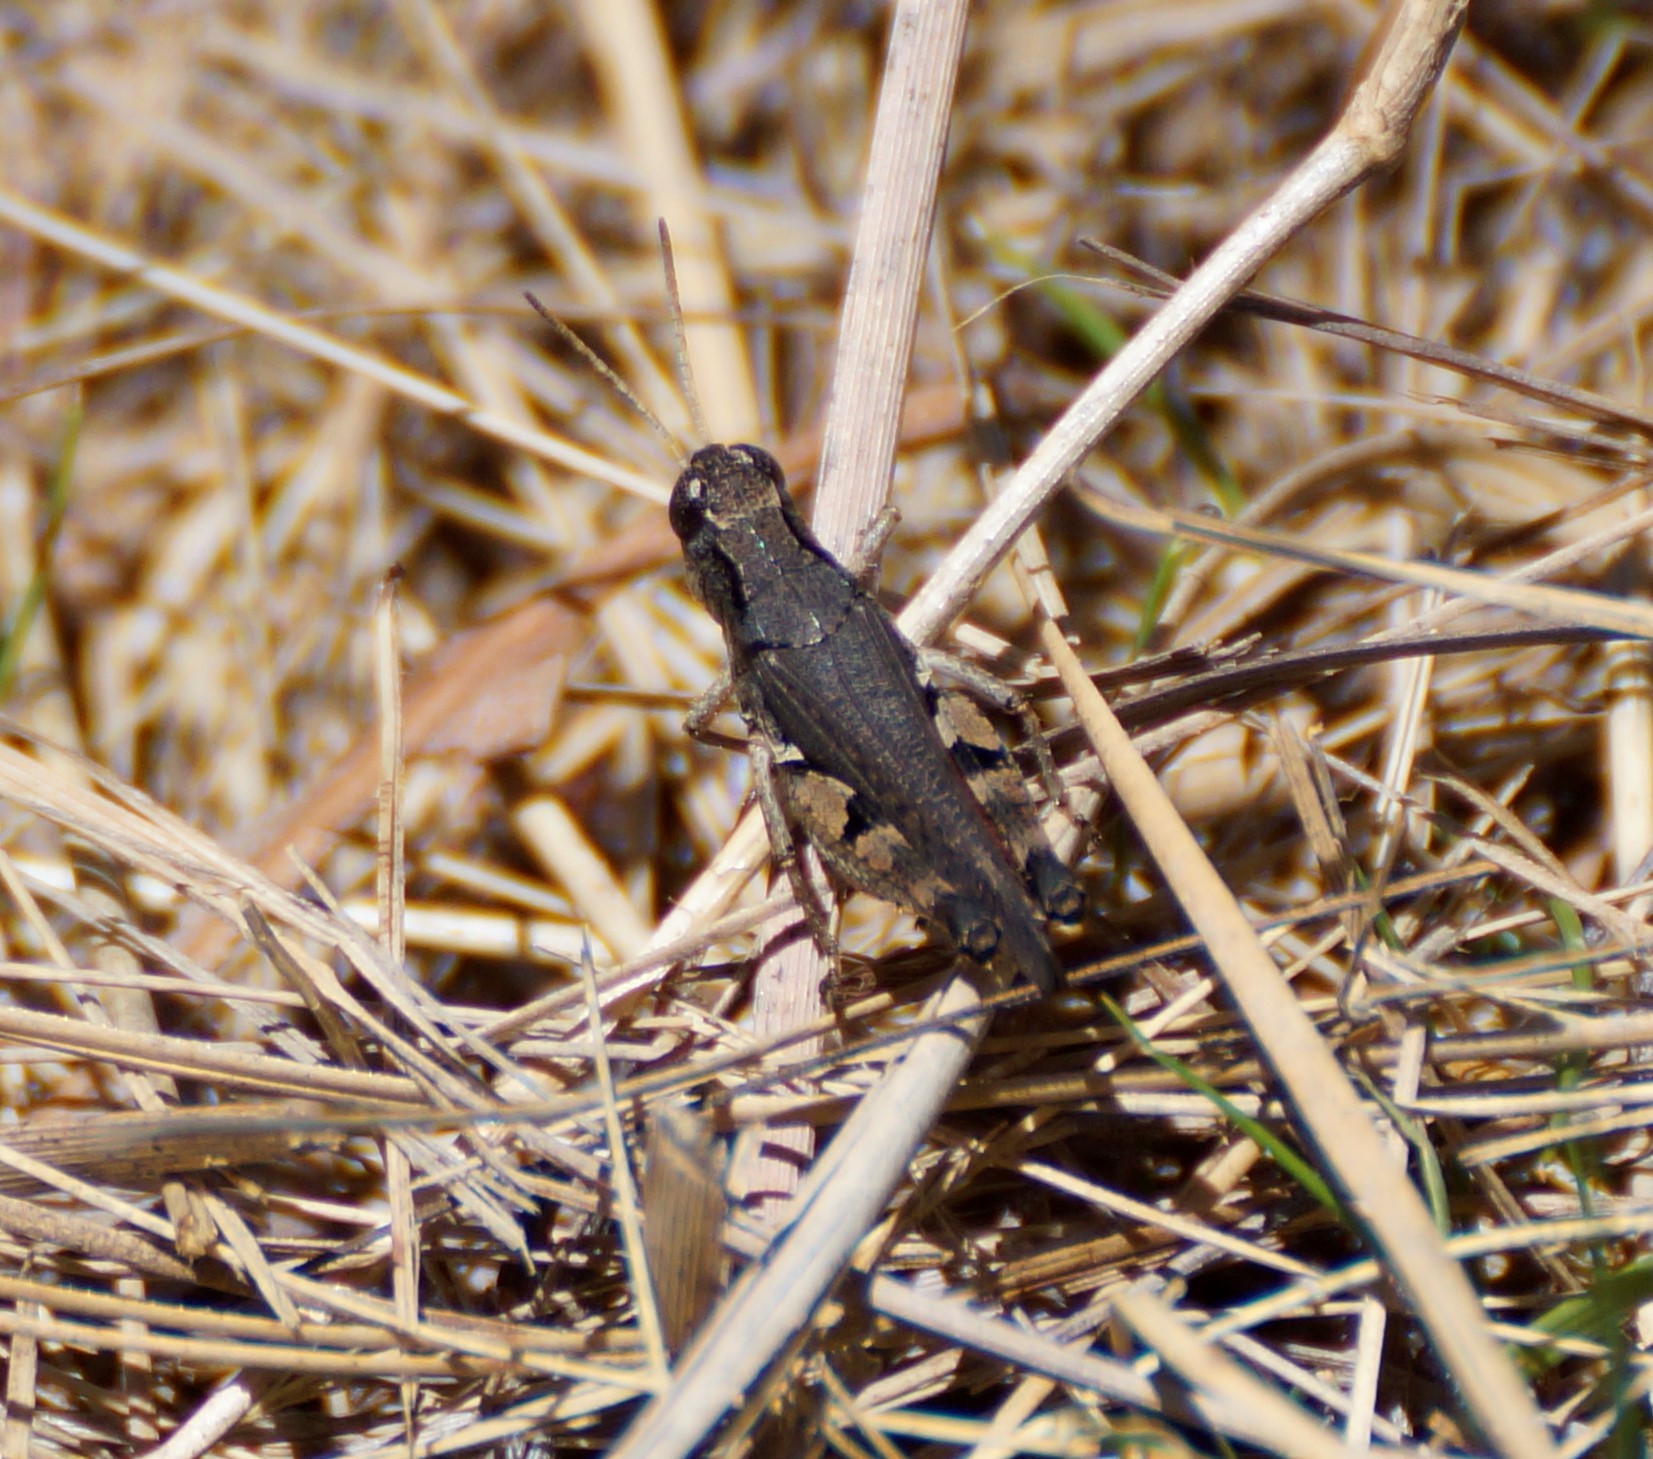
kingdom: Animalia
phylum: Arthropoda
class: Insecta
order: Orthoptera
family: Acrididae
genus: Phaulacridium
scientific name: Phaulacridium vittatum
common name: Wingless grasshopper
